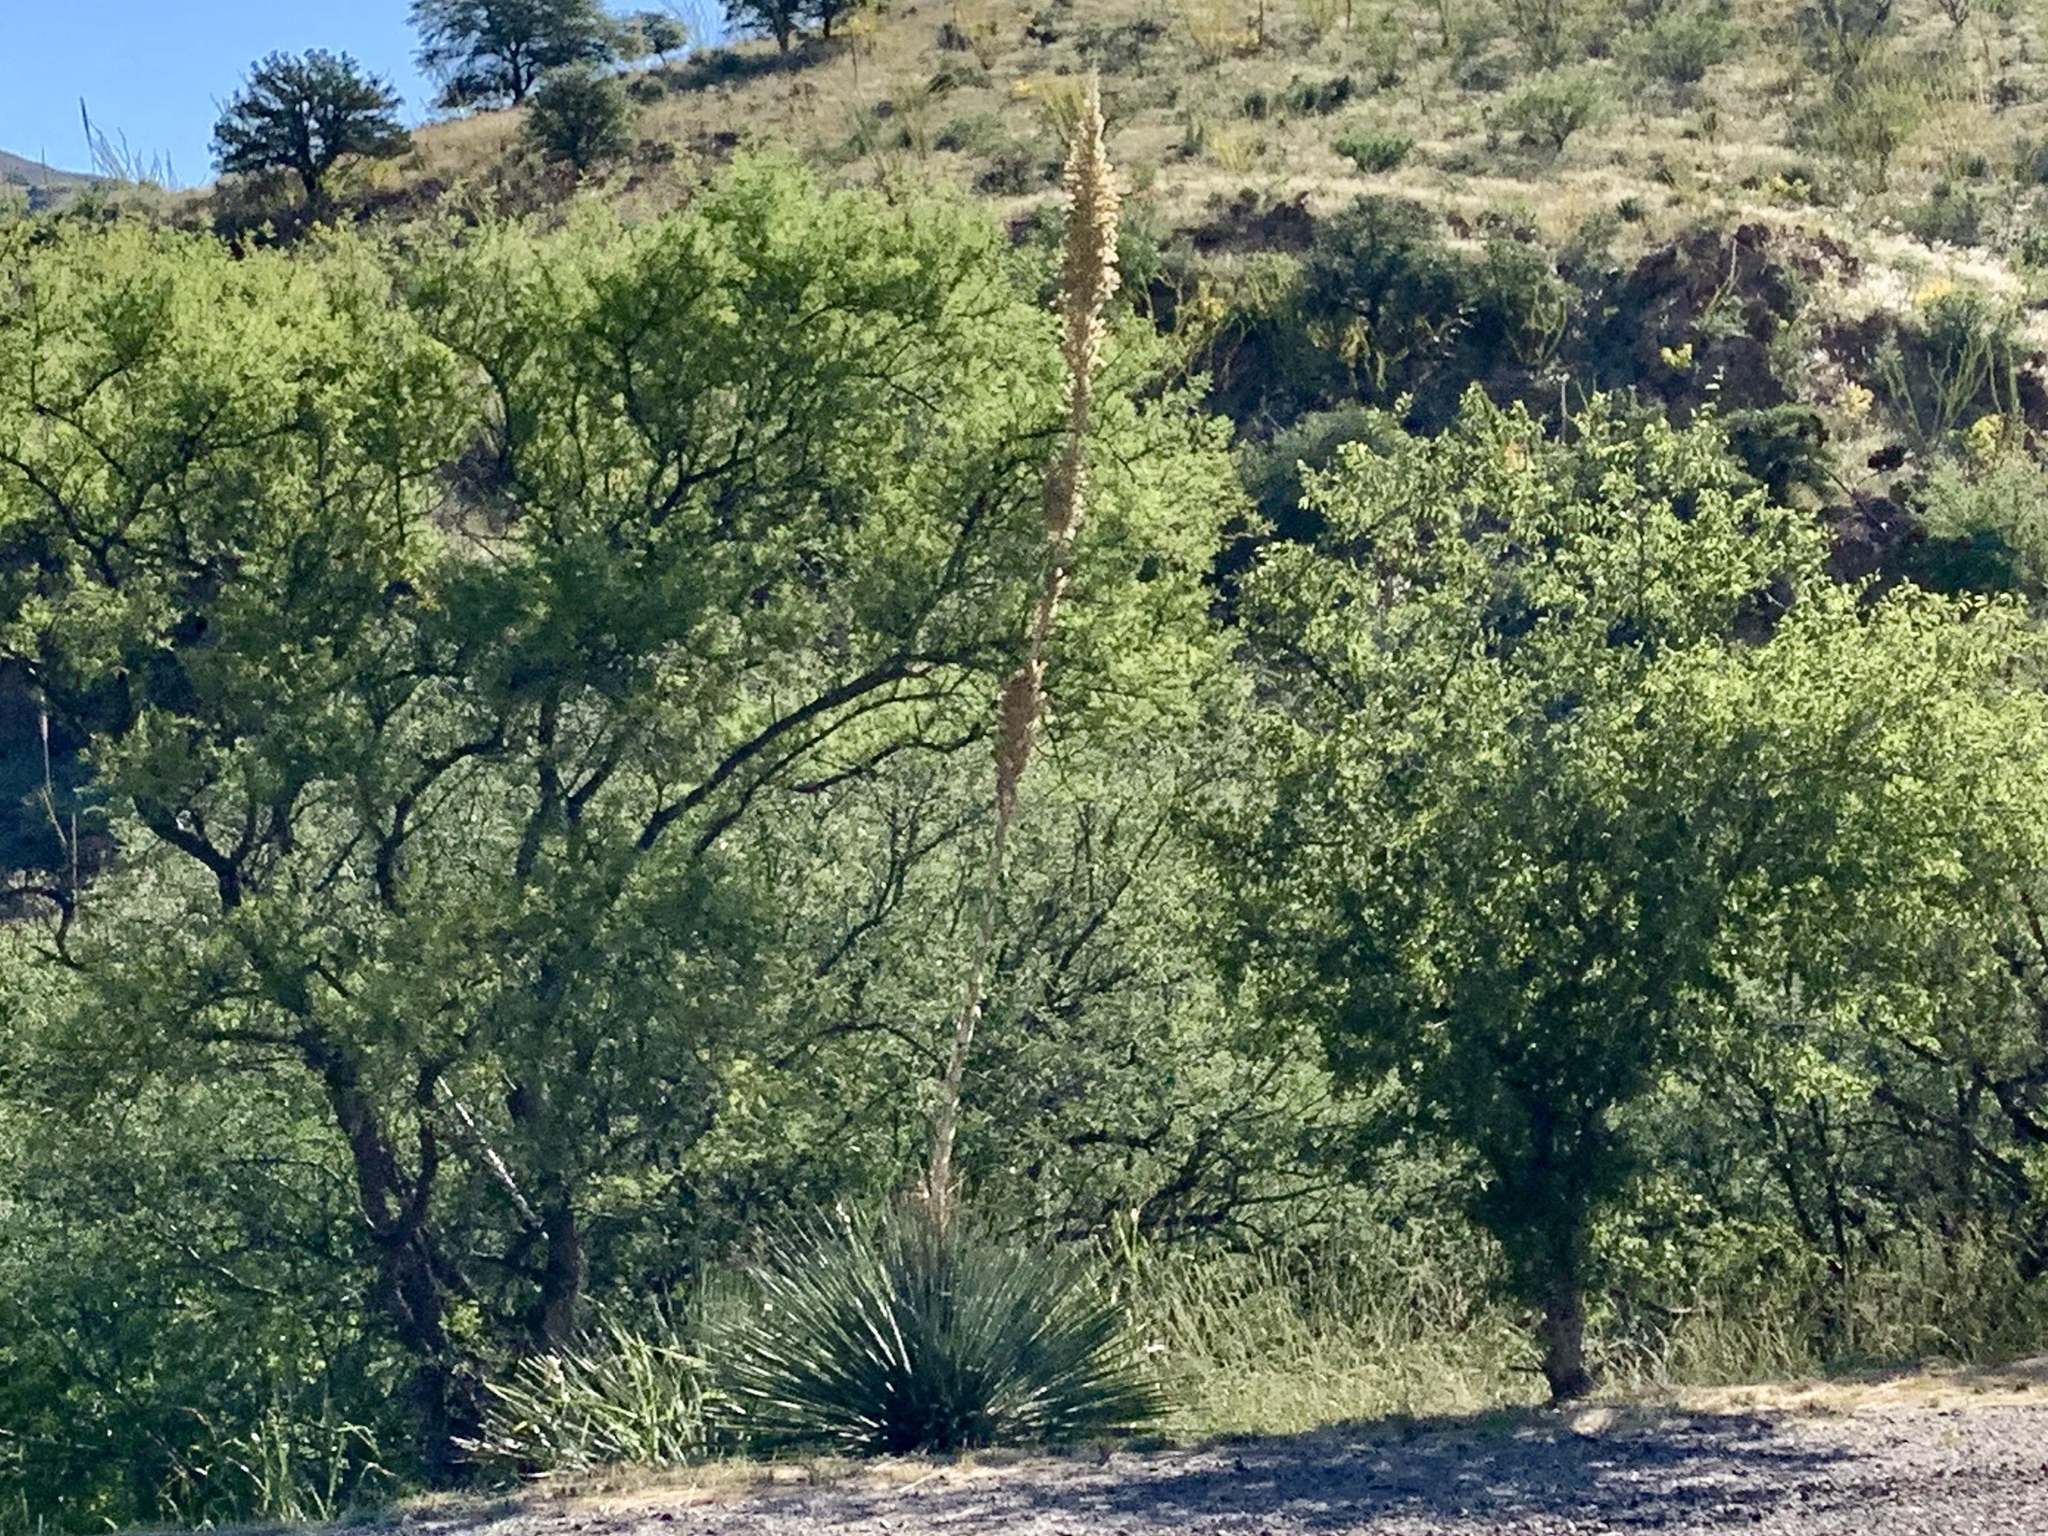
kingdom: Plantae
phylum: Tracheophyta
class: Liliopsida
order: Asparagales
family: Asparagaceae
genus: Dasylirion
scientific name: Dasylirion wheeleri
